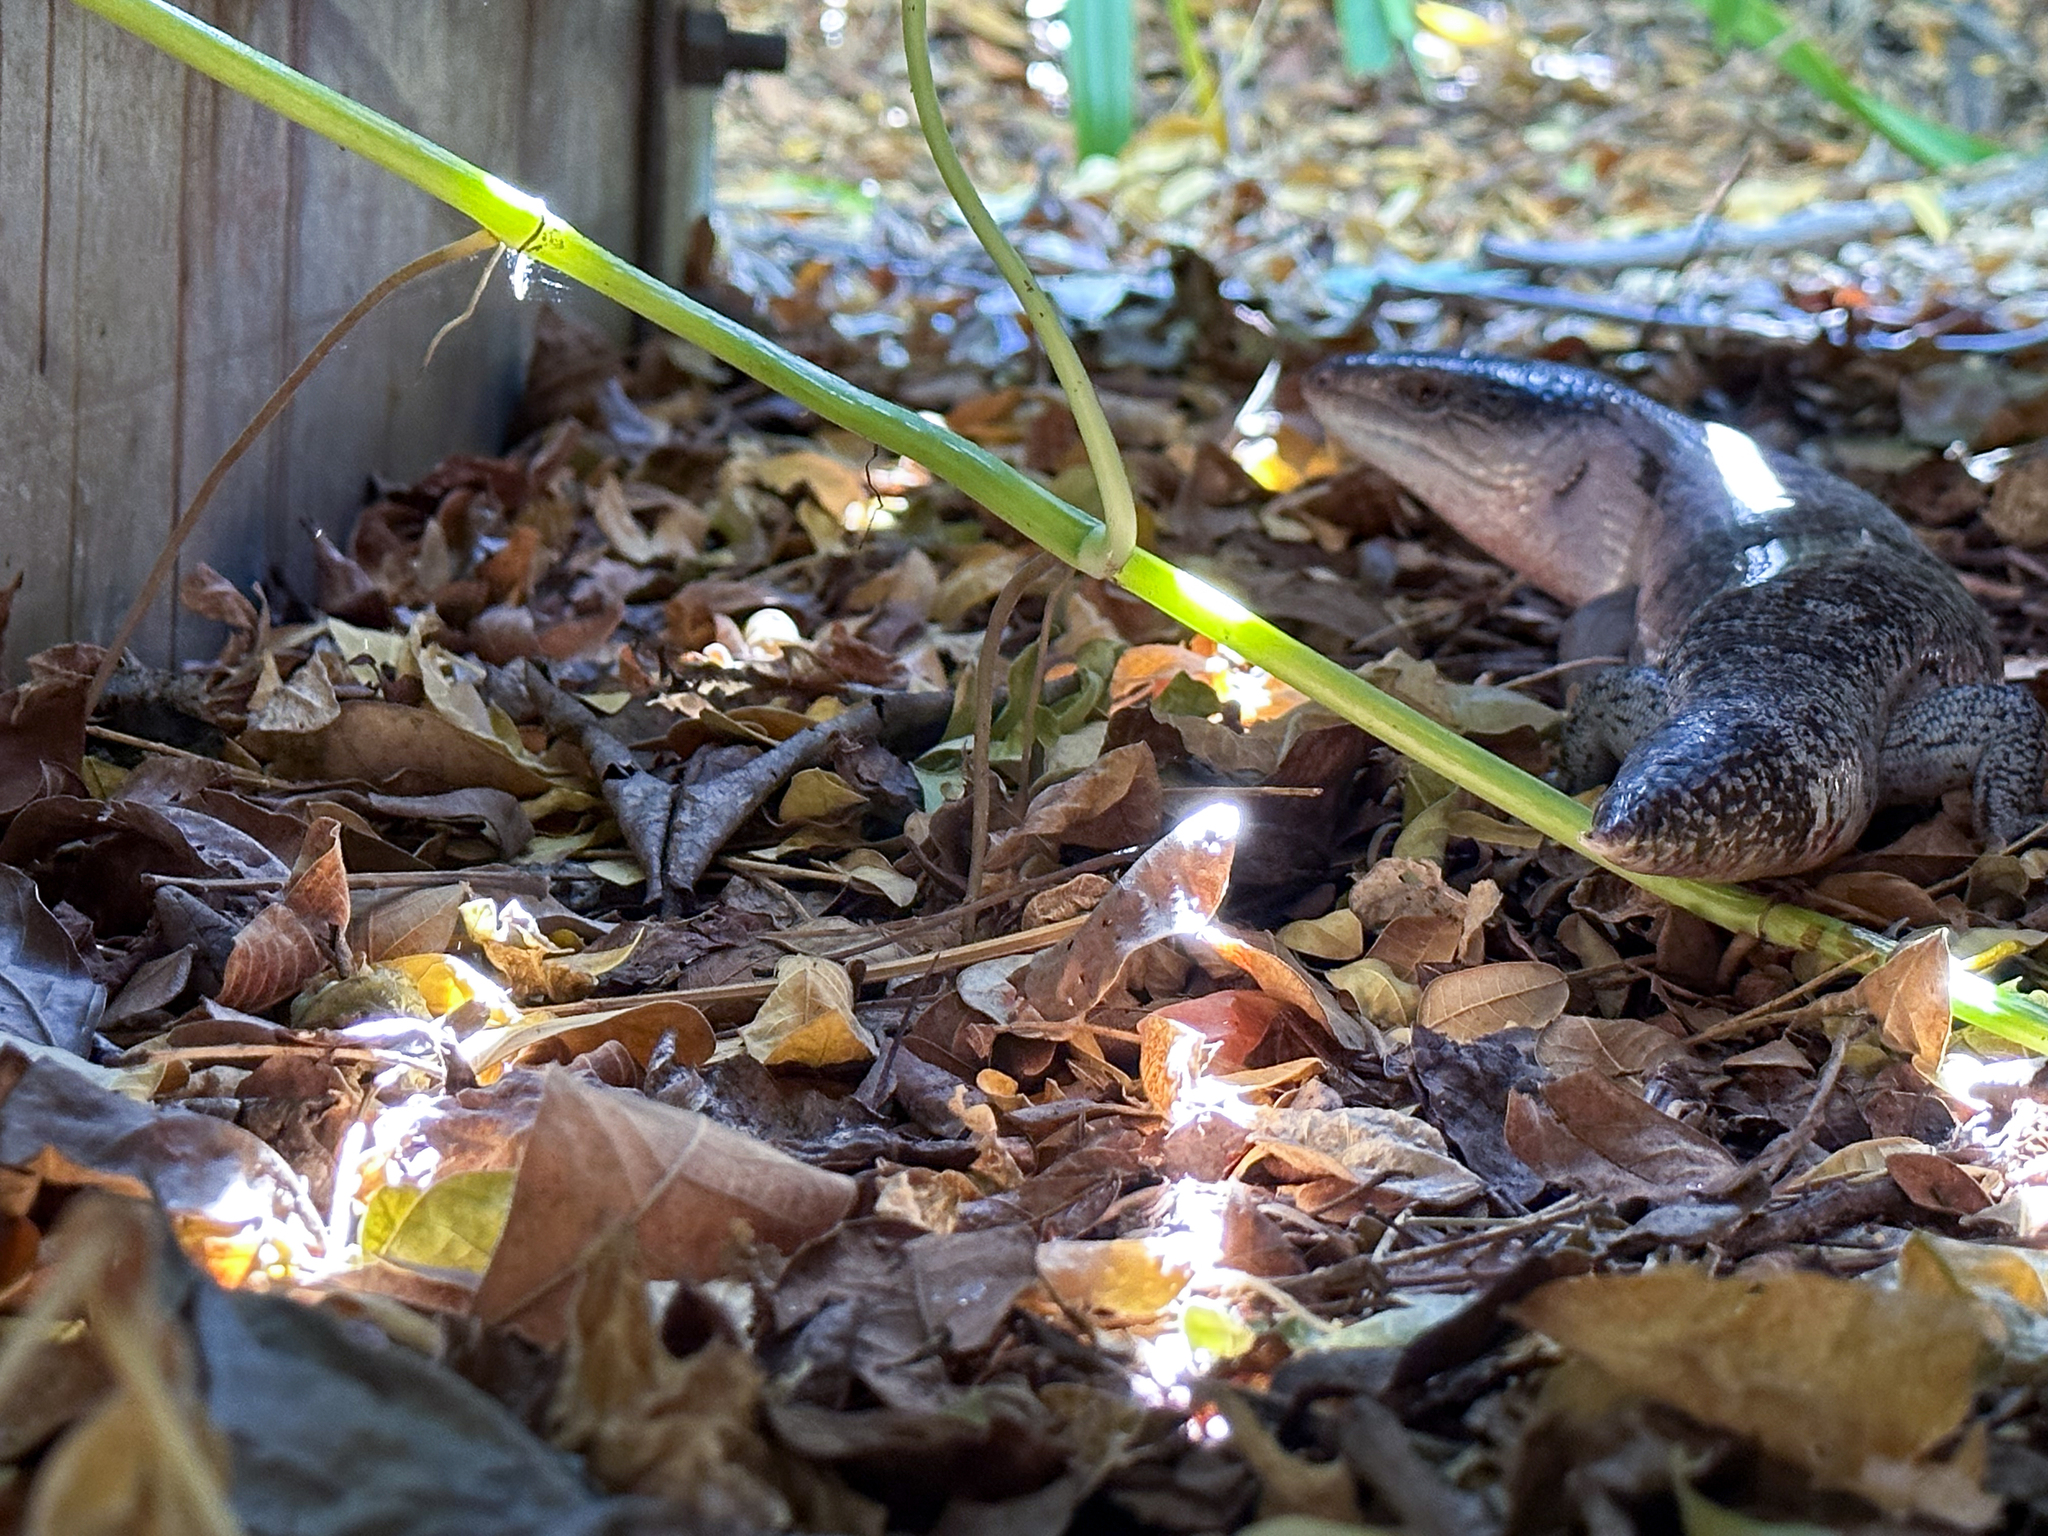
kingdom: Animalia
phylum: Chordata
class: Squamata
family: Scincidae
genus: Tiliqua
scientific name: Tiliqua scincoides
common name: Common bluetongue
